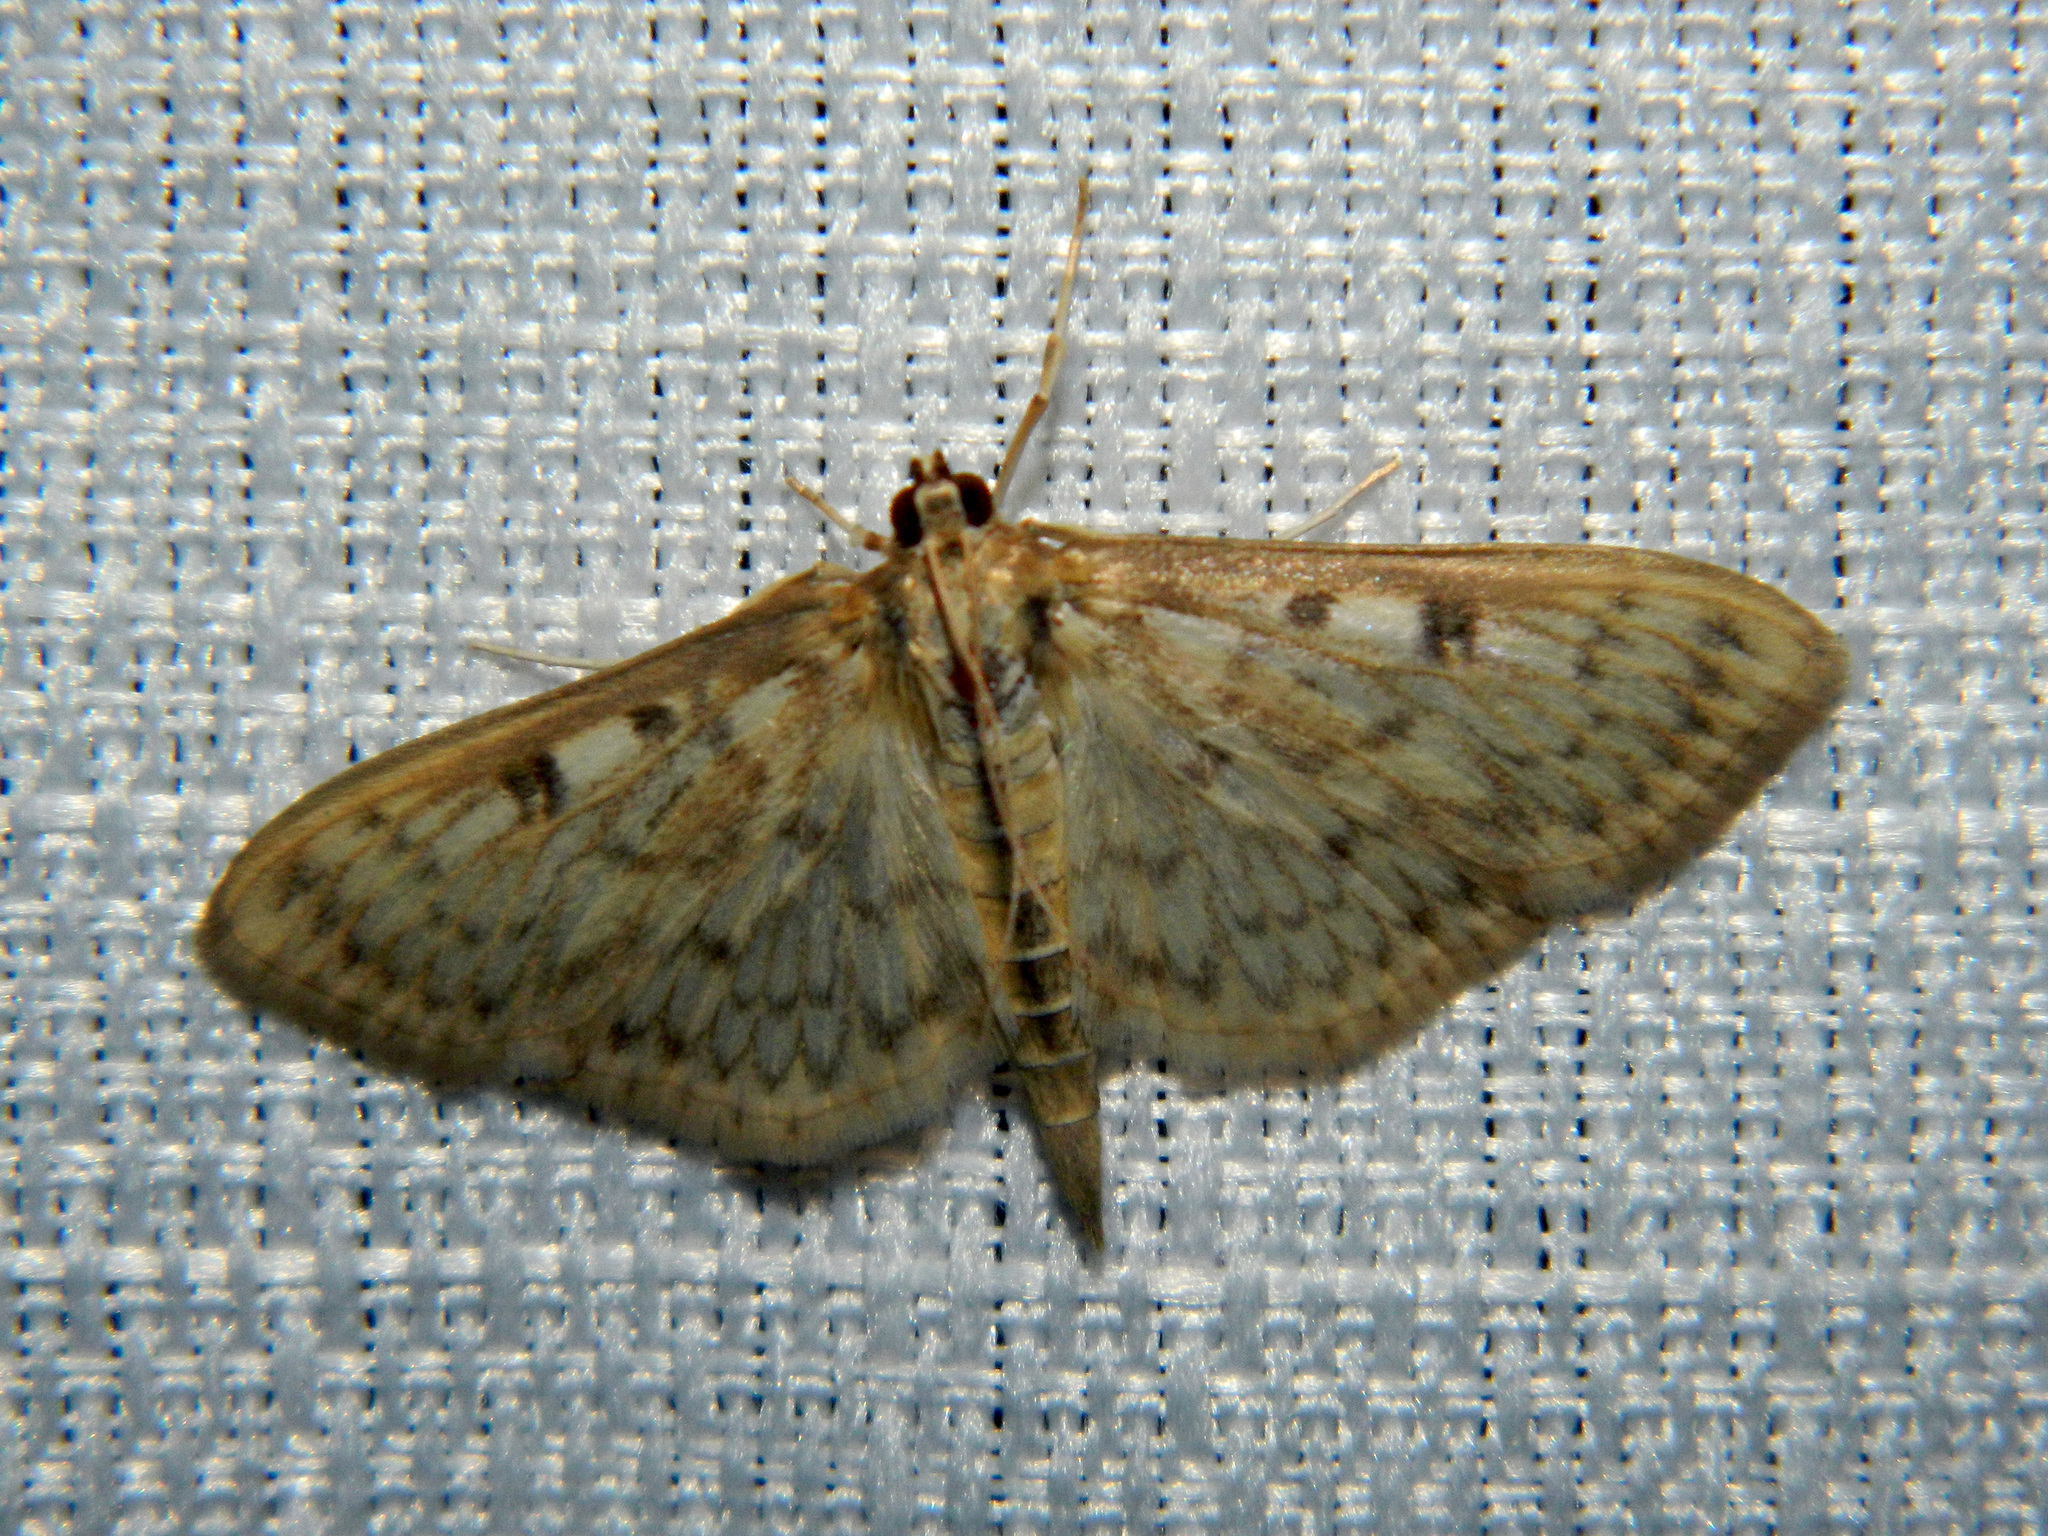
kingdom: Animalia
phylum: Arthropoda
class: Insecta
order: Lepidoptera
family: Crambidae
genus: Herpetogramma
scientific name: Herpetogramma pertextalis
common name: Bold-feathered grass moth
